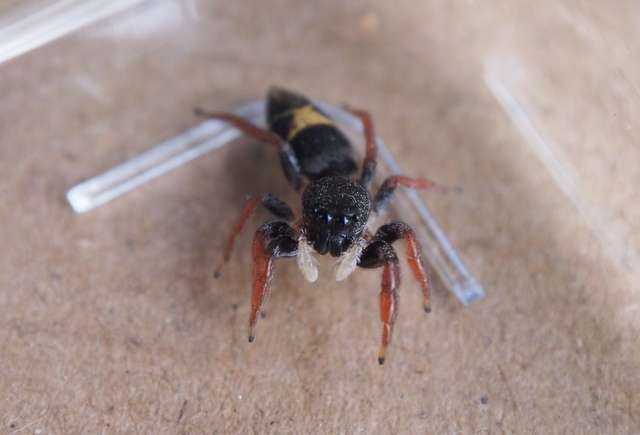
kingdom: Animalia
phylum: Arthropoda
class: Arachnida
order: Araneae
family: Salticidae
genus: Apricia
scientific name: Apricia jovialis
